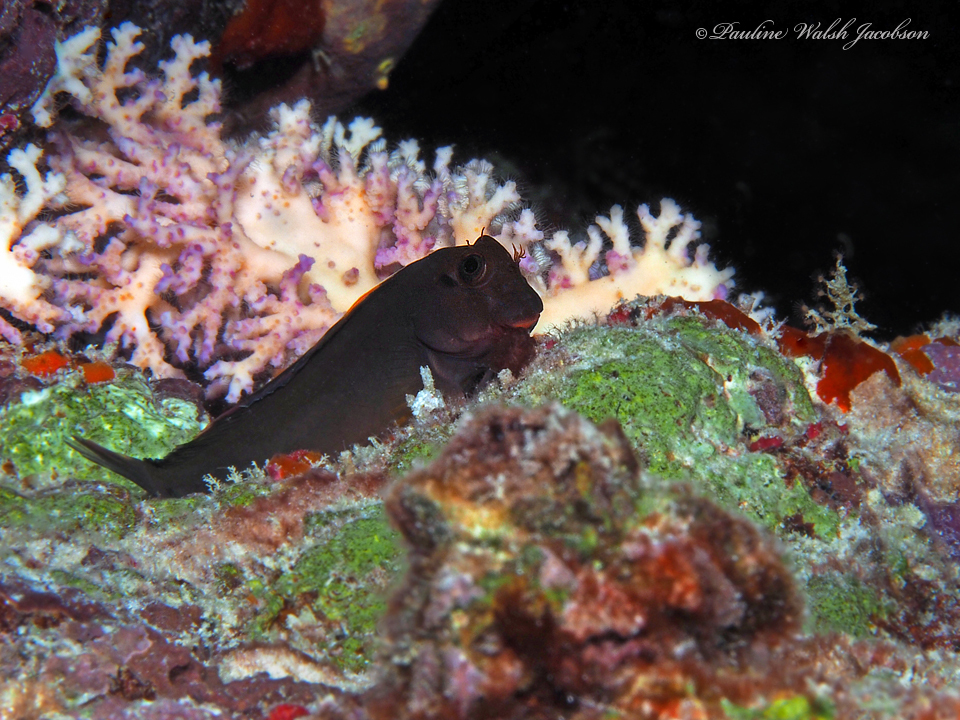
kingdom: Animalia
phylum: Chordata
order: Perciformes
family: Blenniidae
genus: Ophioblennius
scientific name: Ophioblennius macclurei
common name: Redlip blenny
